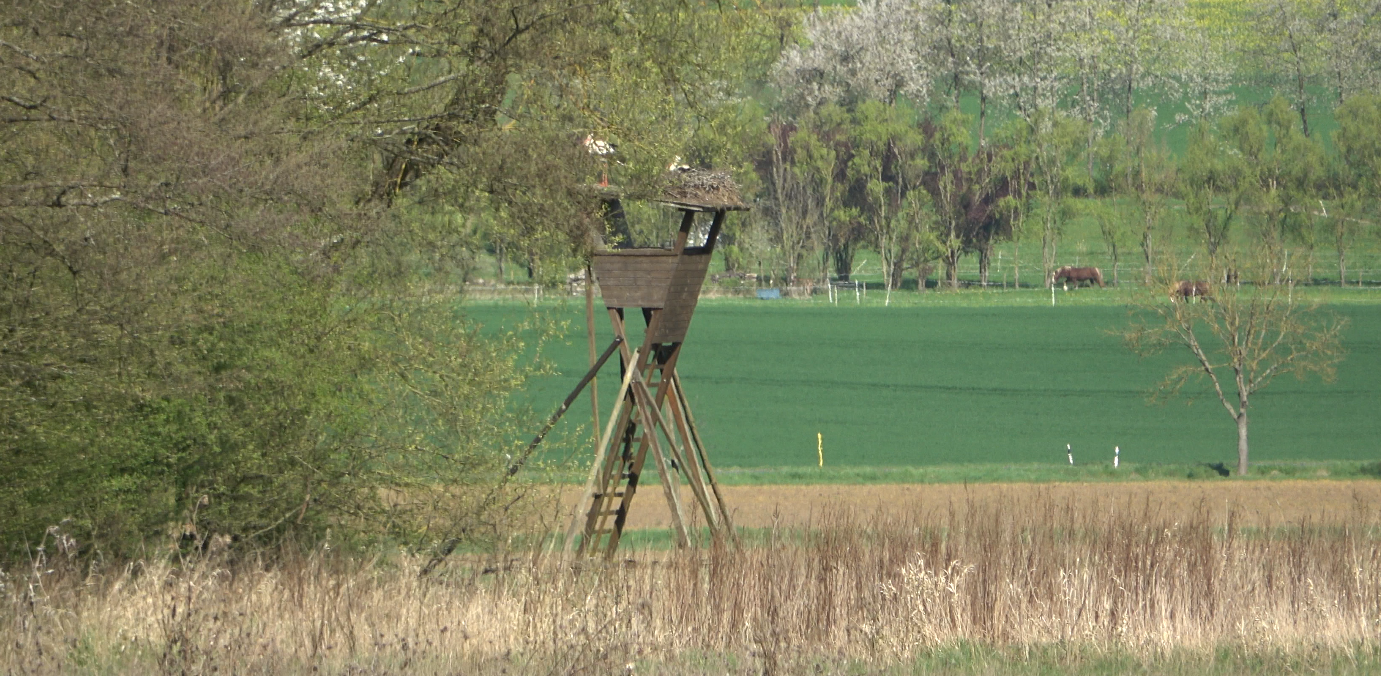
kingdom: Animalia
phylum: Chordata
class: Aves
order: Ciconiiformes
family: Ciconiidae
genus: Ciconia
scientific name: Ciconia ciconia
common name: White stork
